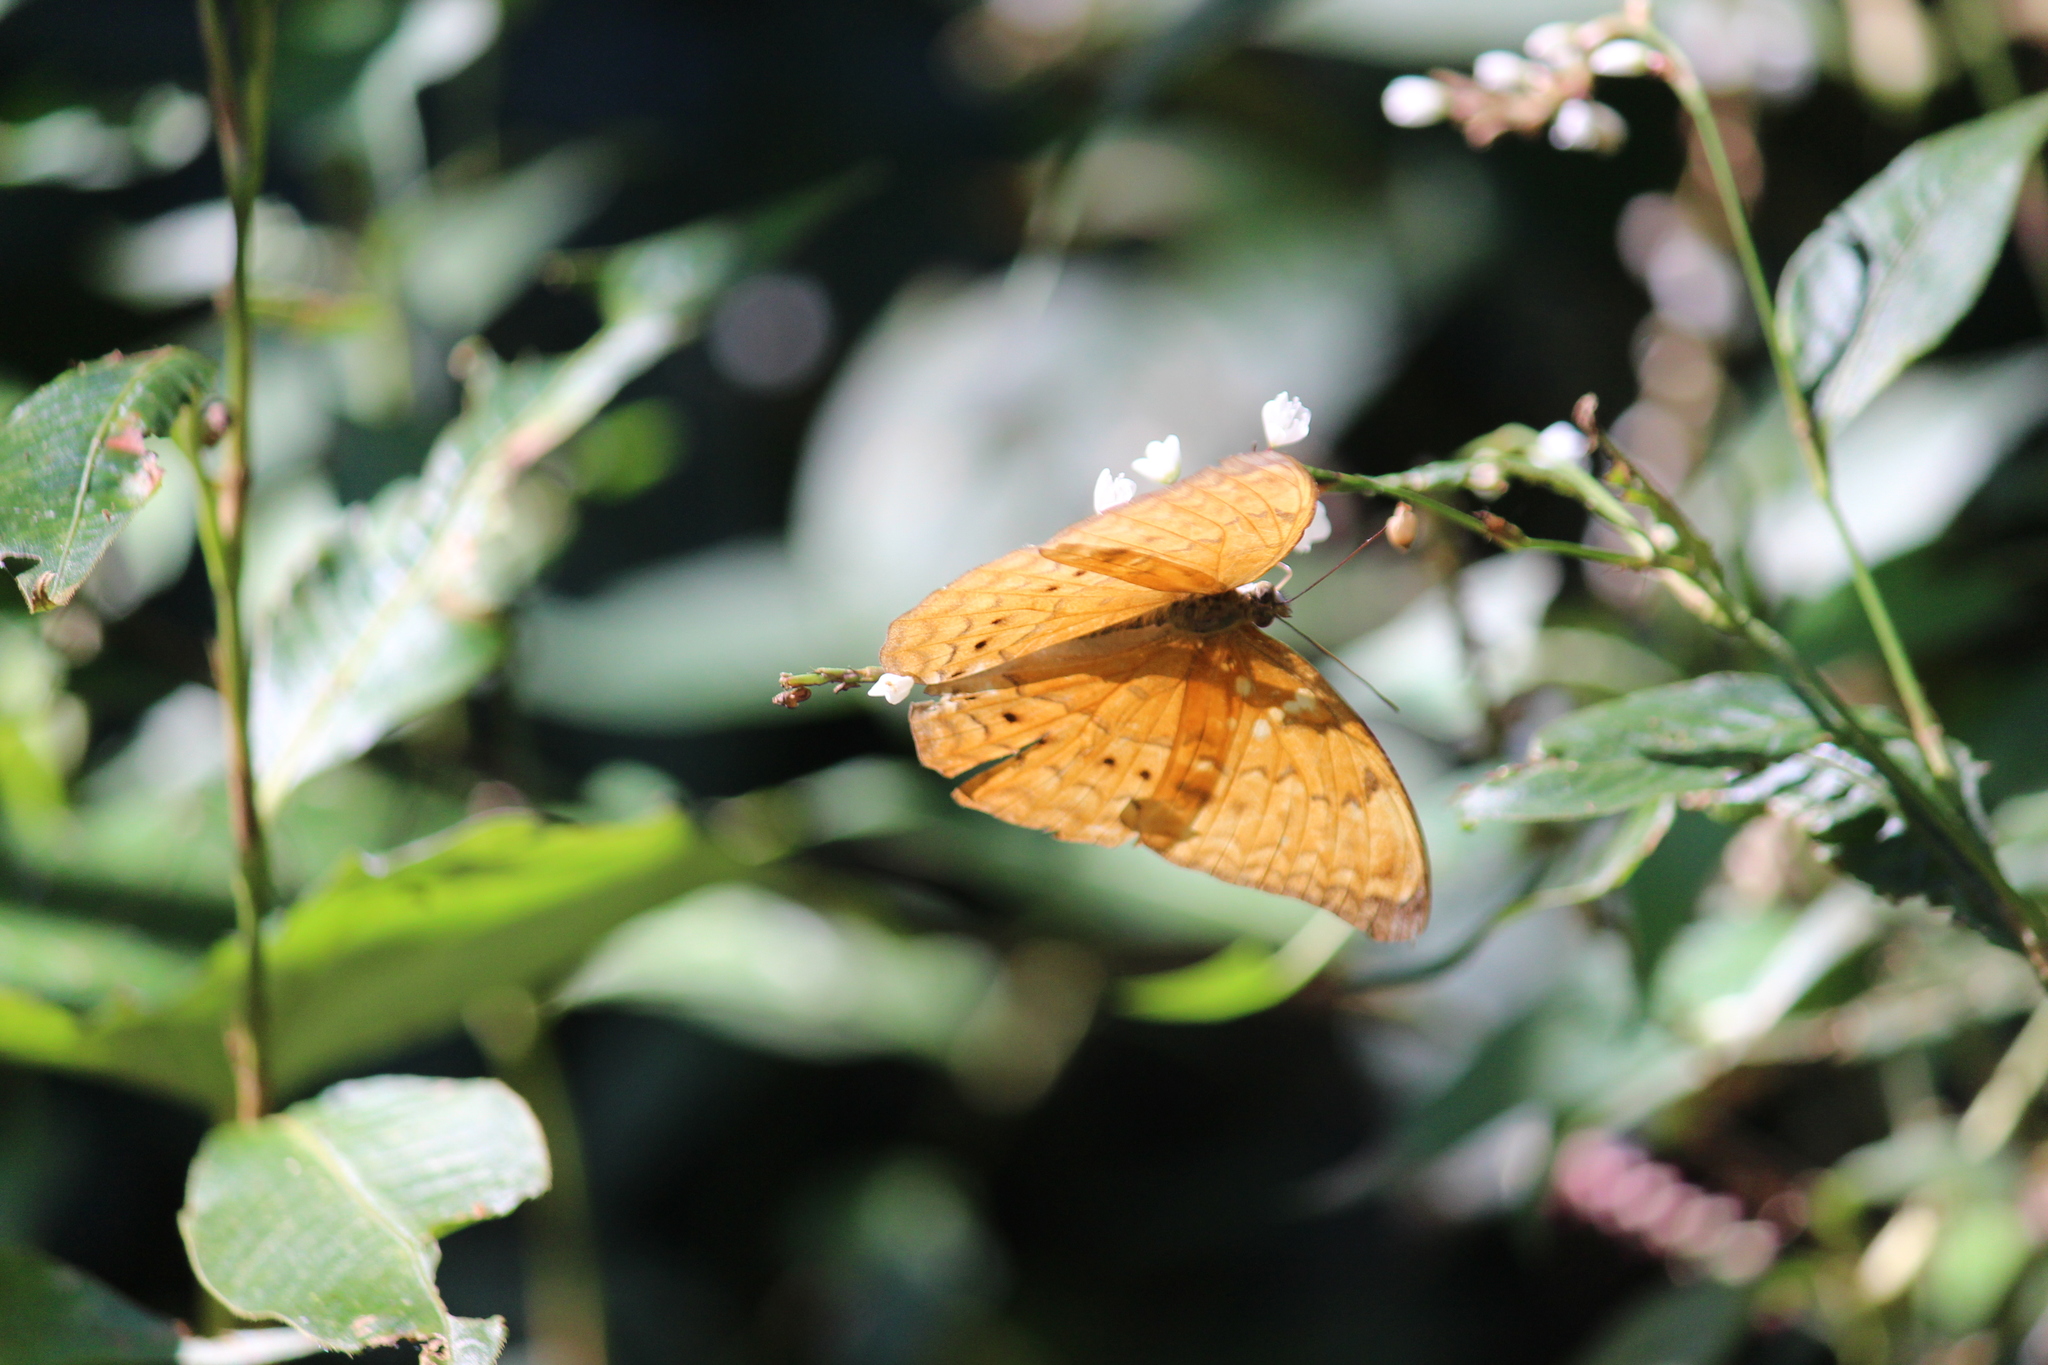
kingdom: Animalia
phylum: Arthropoda
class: Insecta
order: Lepidoptera
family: Nymphalidae
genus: Cirrochroa
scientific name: Cirrochroa aoris
